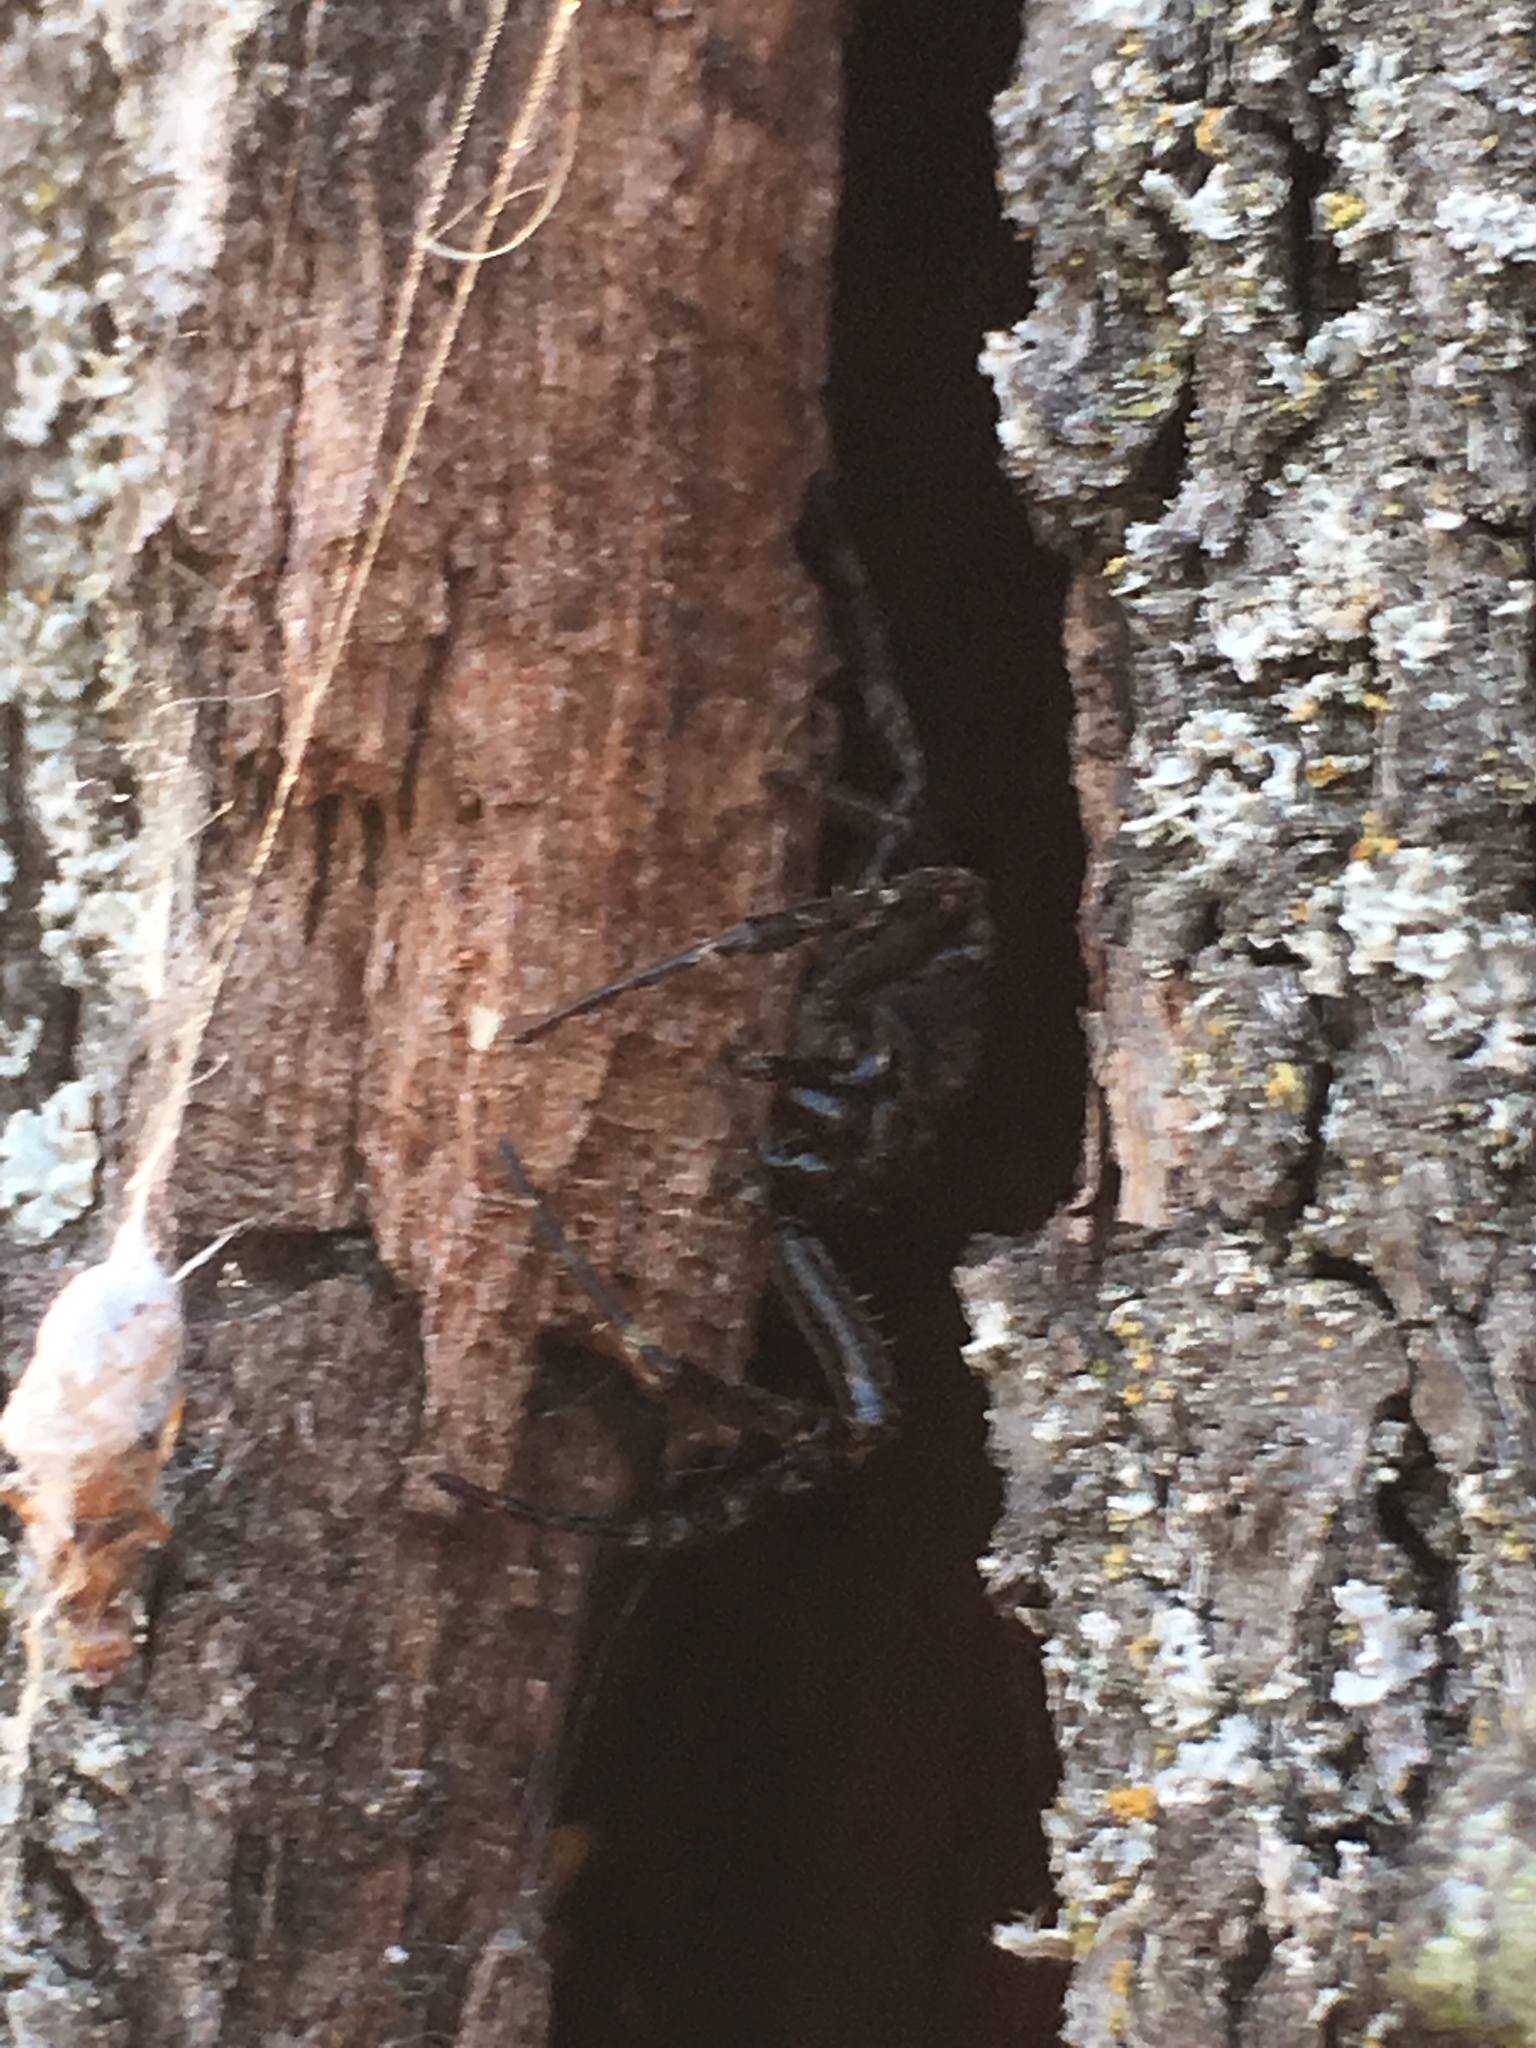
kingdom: Animalia
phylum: Arthropoda
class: Arachnida
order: Araneae
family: Araneidae
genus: Nuctenea
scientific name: Nuctenea umbratica
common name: Toad spider
